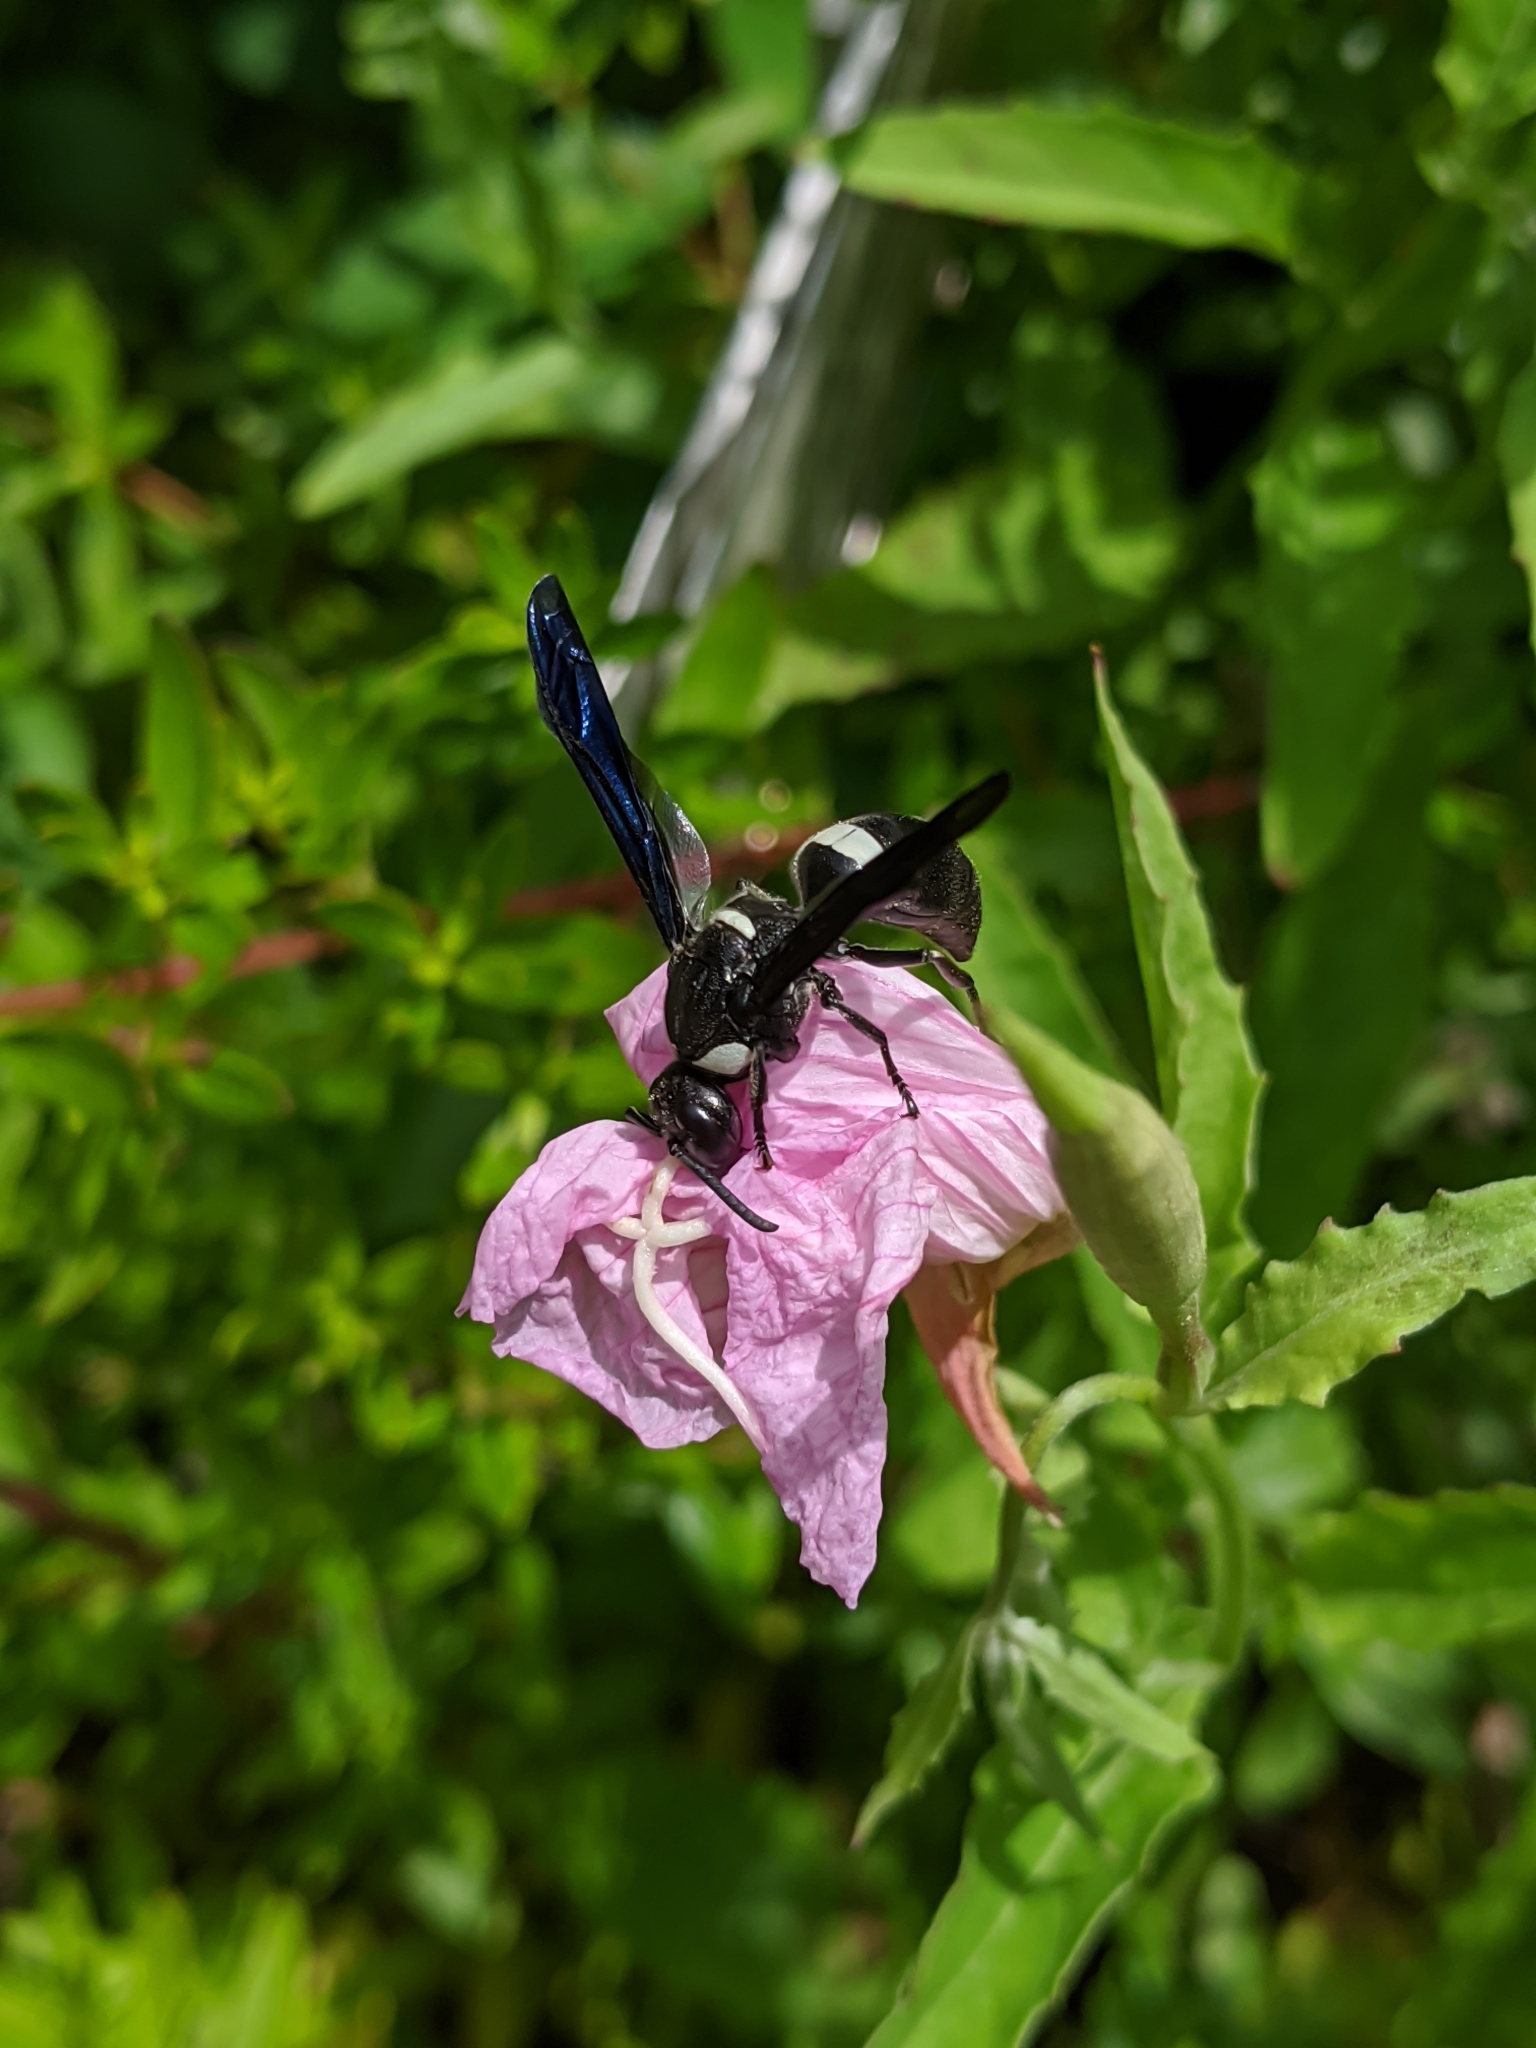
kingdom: Animalia
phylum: Arthropoda
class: Insecta
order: Hymenoptera
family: Eumenidae
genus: Monobia
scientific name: Monobia quadridens
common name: Four-toothed mason wasp
